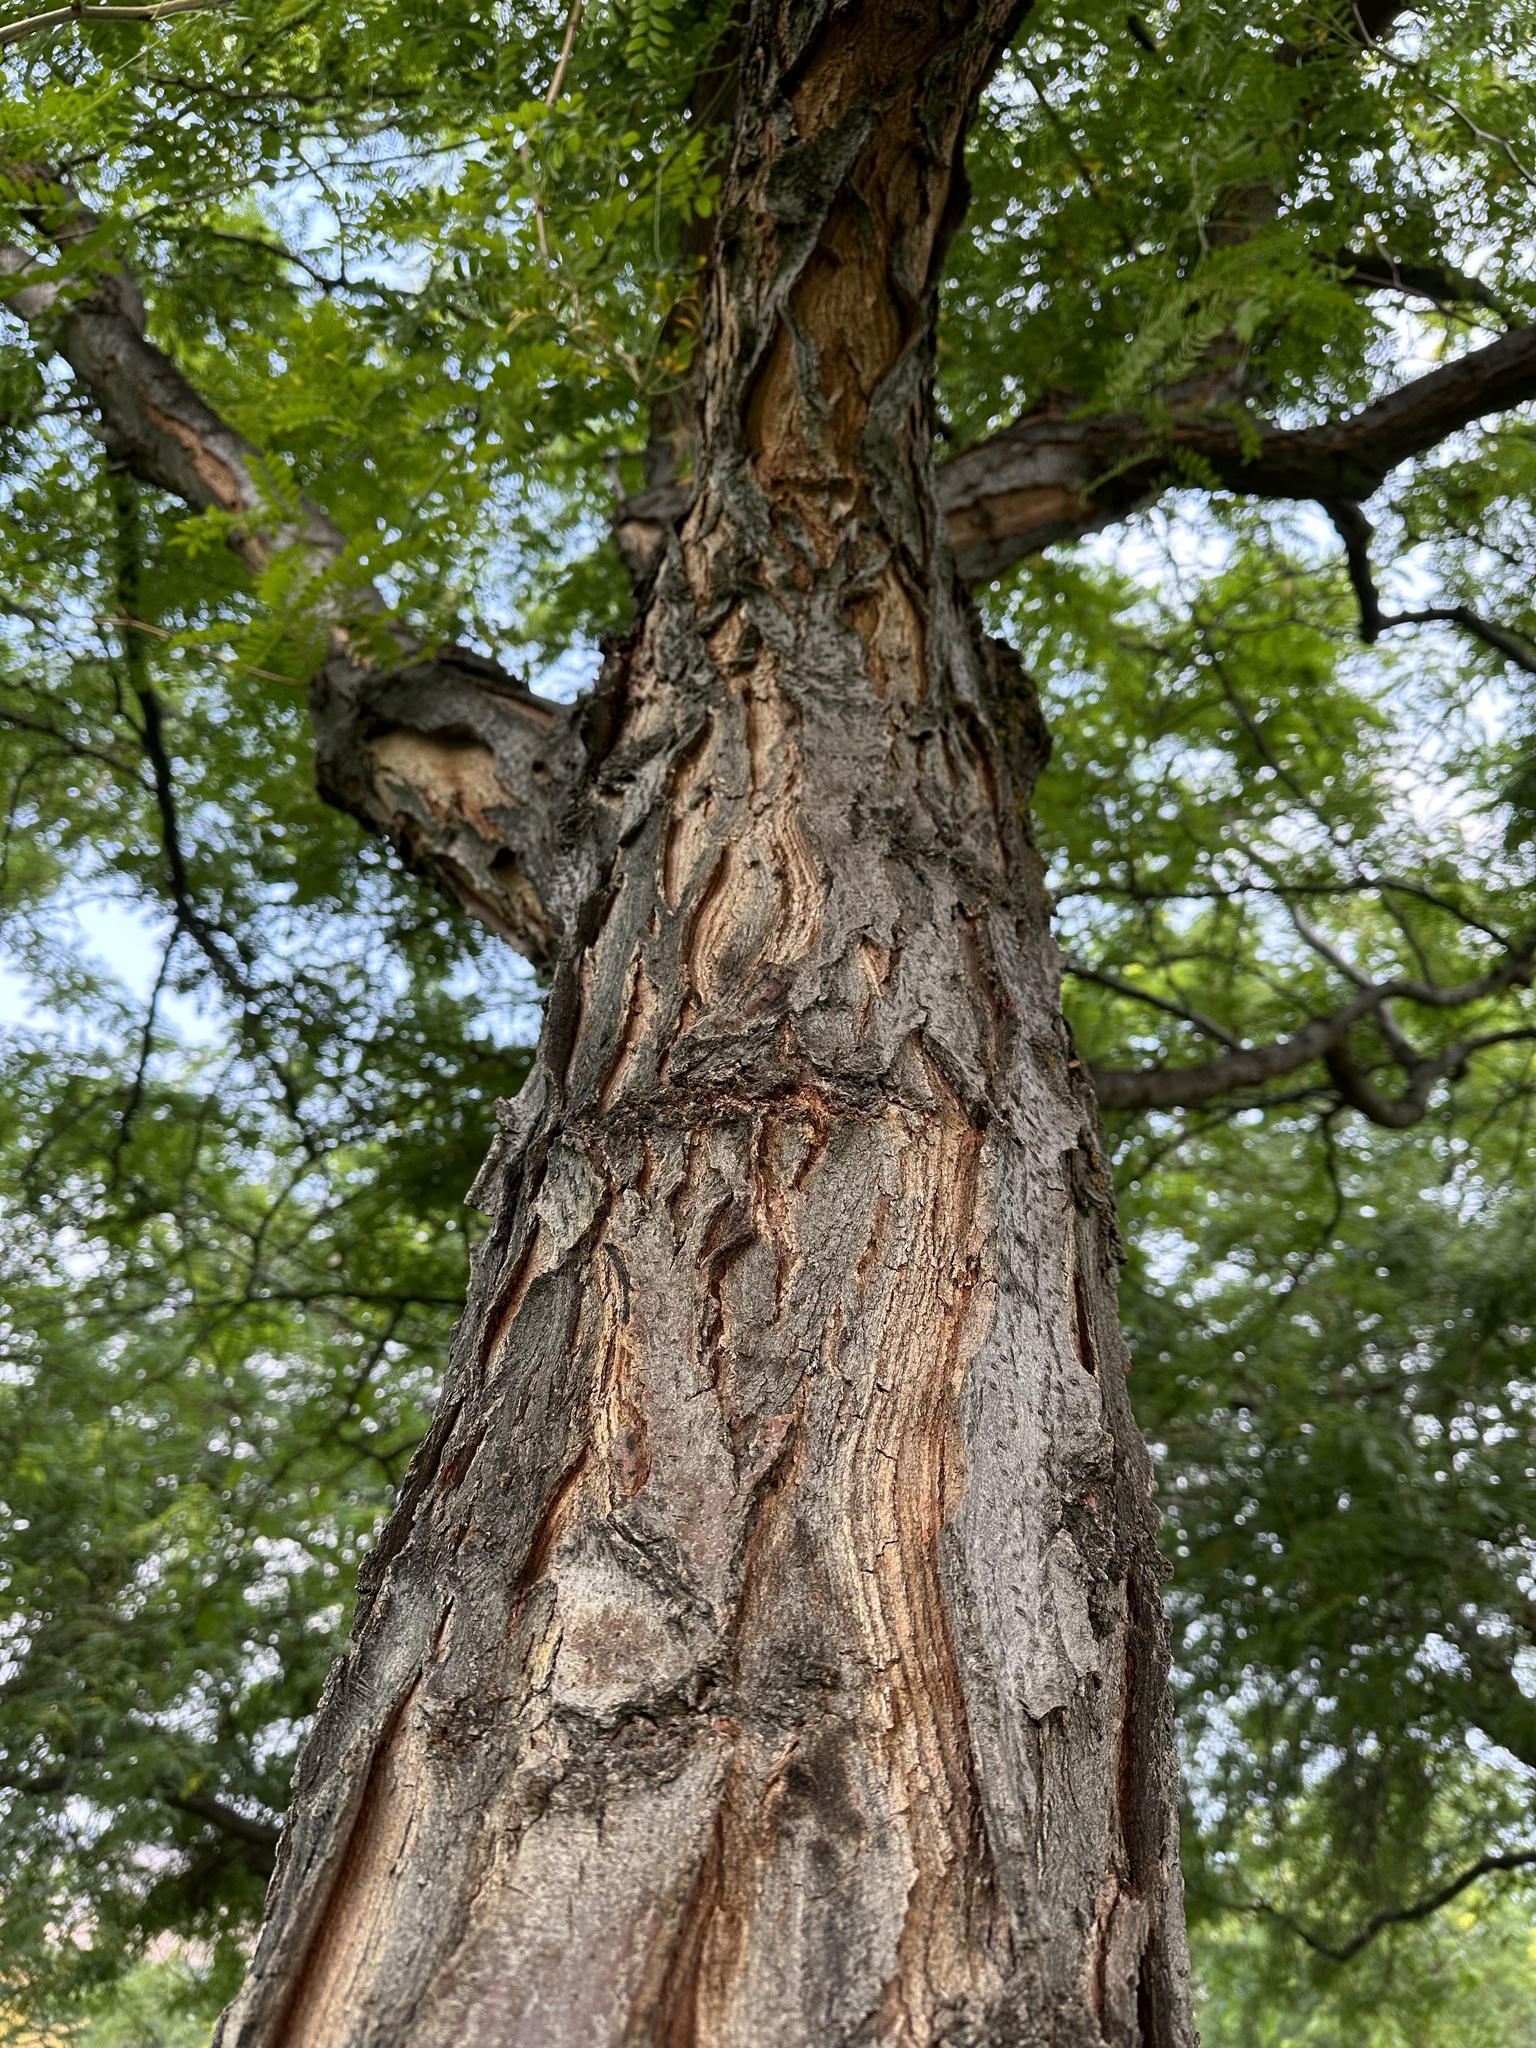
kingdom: Plantae
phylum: Tracheophyta
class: Magnoliopsida
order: Fabales
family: Fabaceae
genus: Gleditsia
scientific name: Gleditsia triacanthos
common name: Common honeylocust
